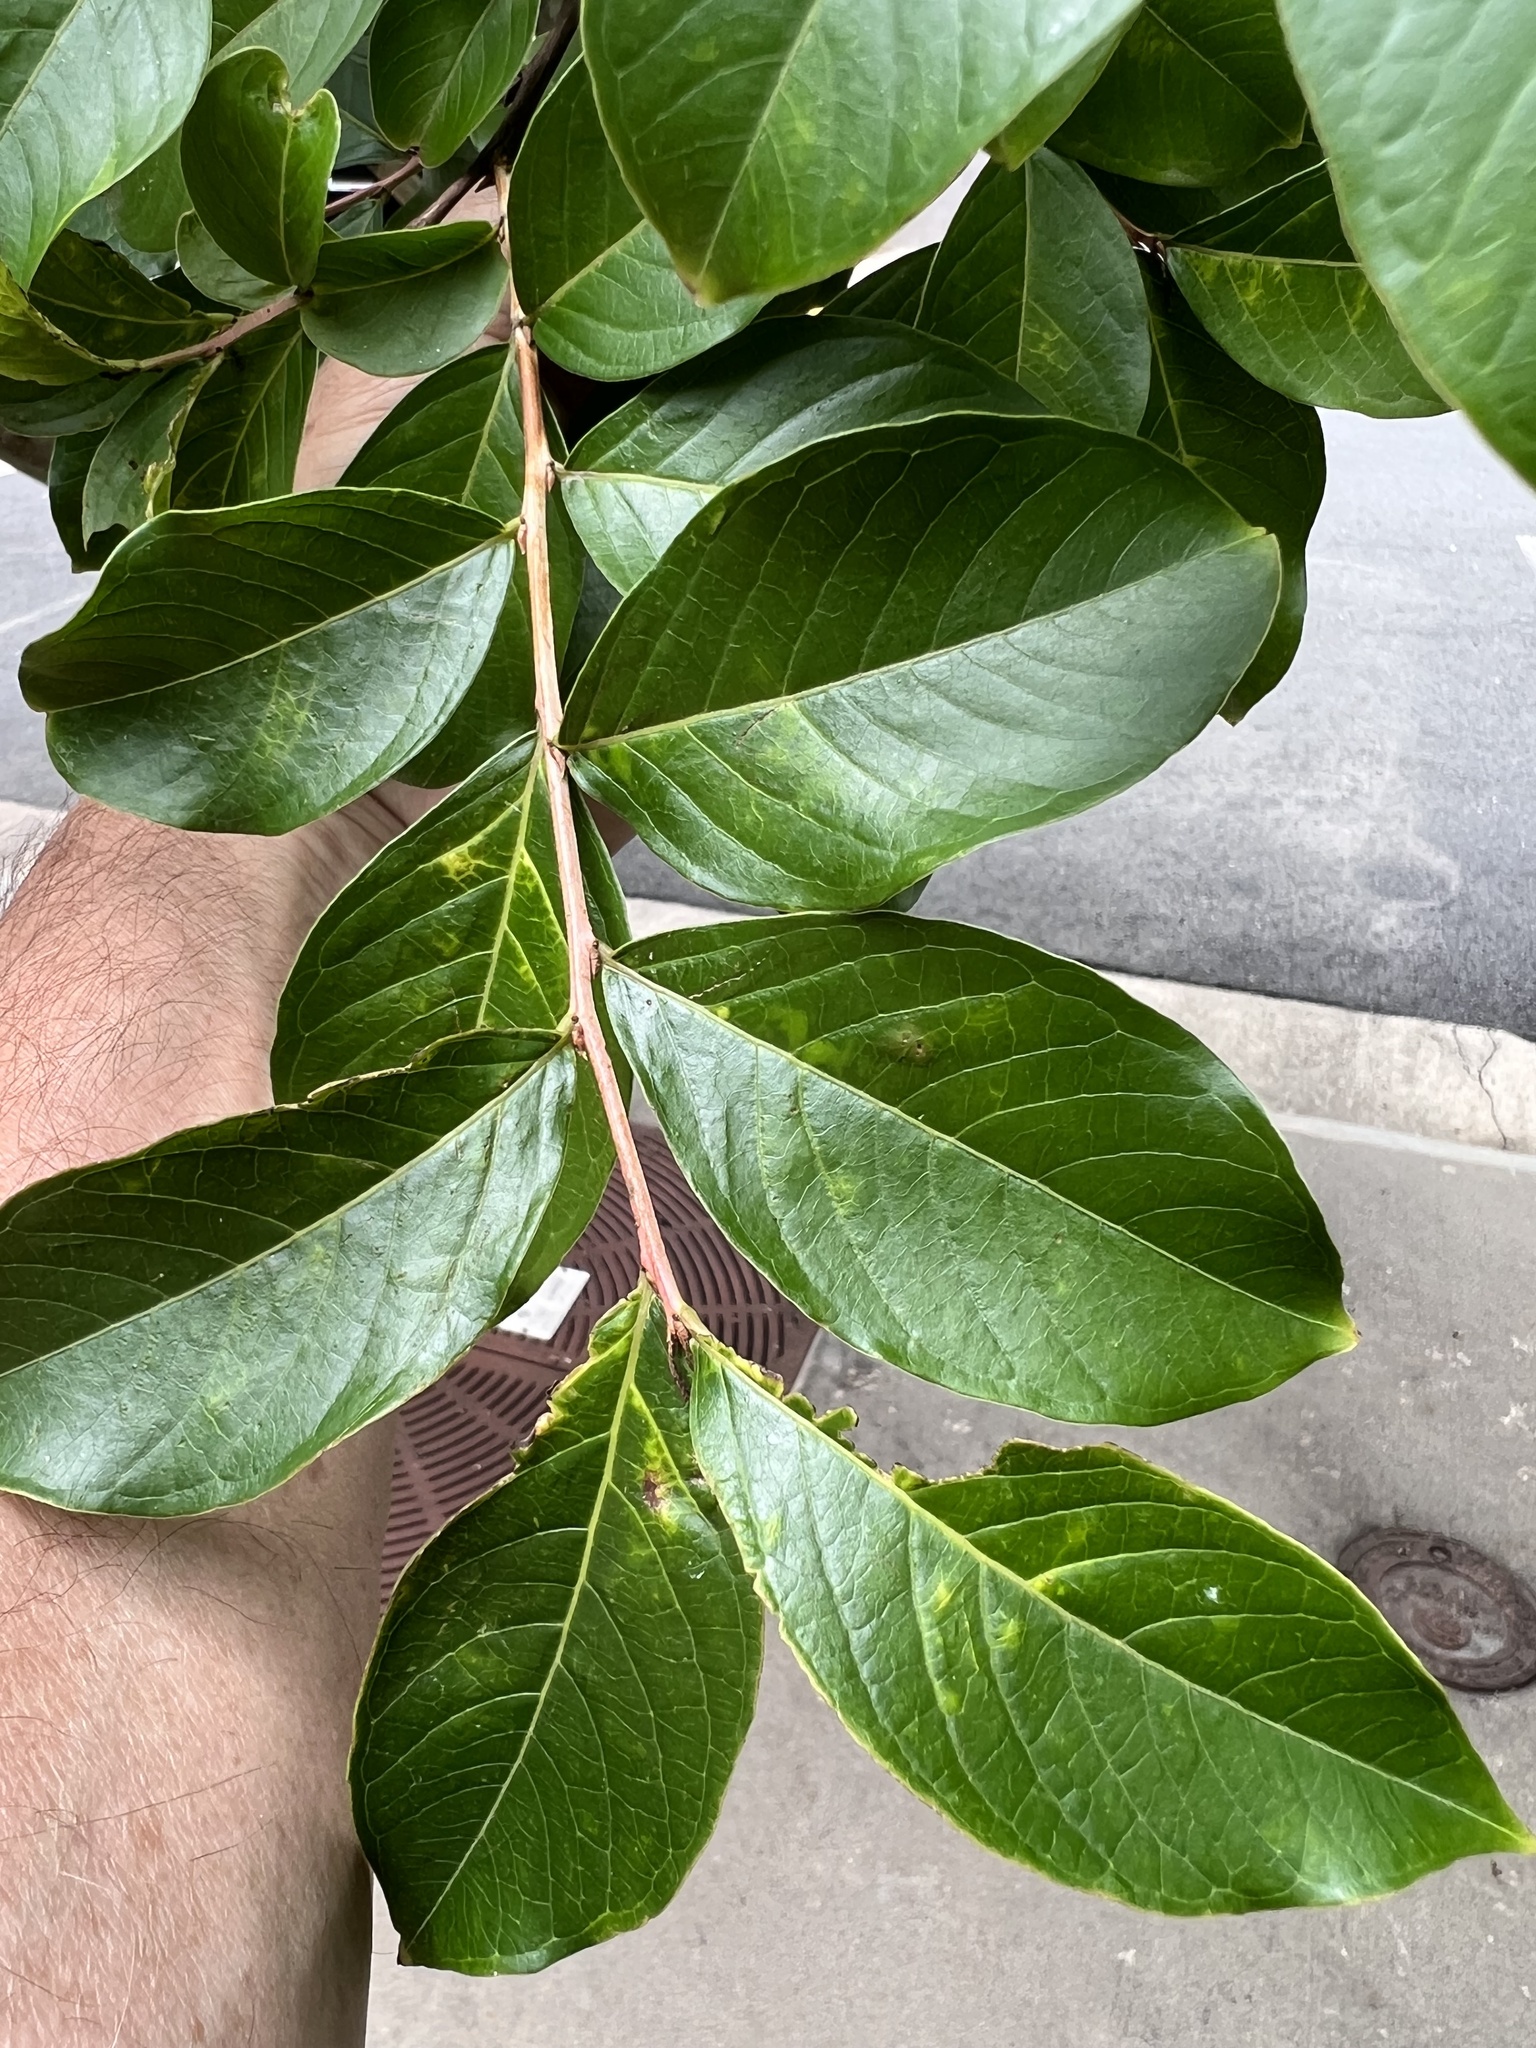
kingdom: Animalia
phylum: Arthropoda
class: Insecta
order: Hemiptera
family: Aphididae
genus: Sarucallis
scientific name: Sarucallis kahawaluokalani
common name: Crapemyrtle aphid
